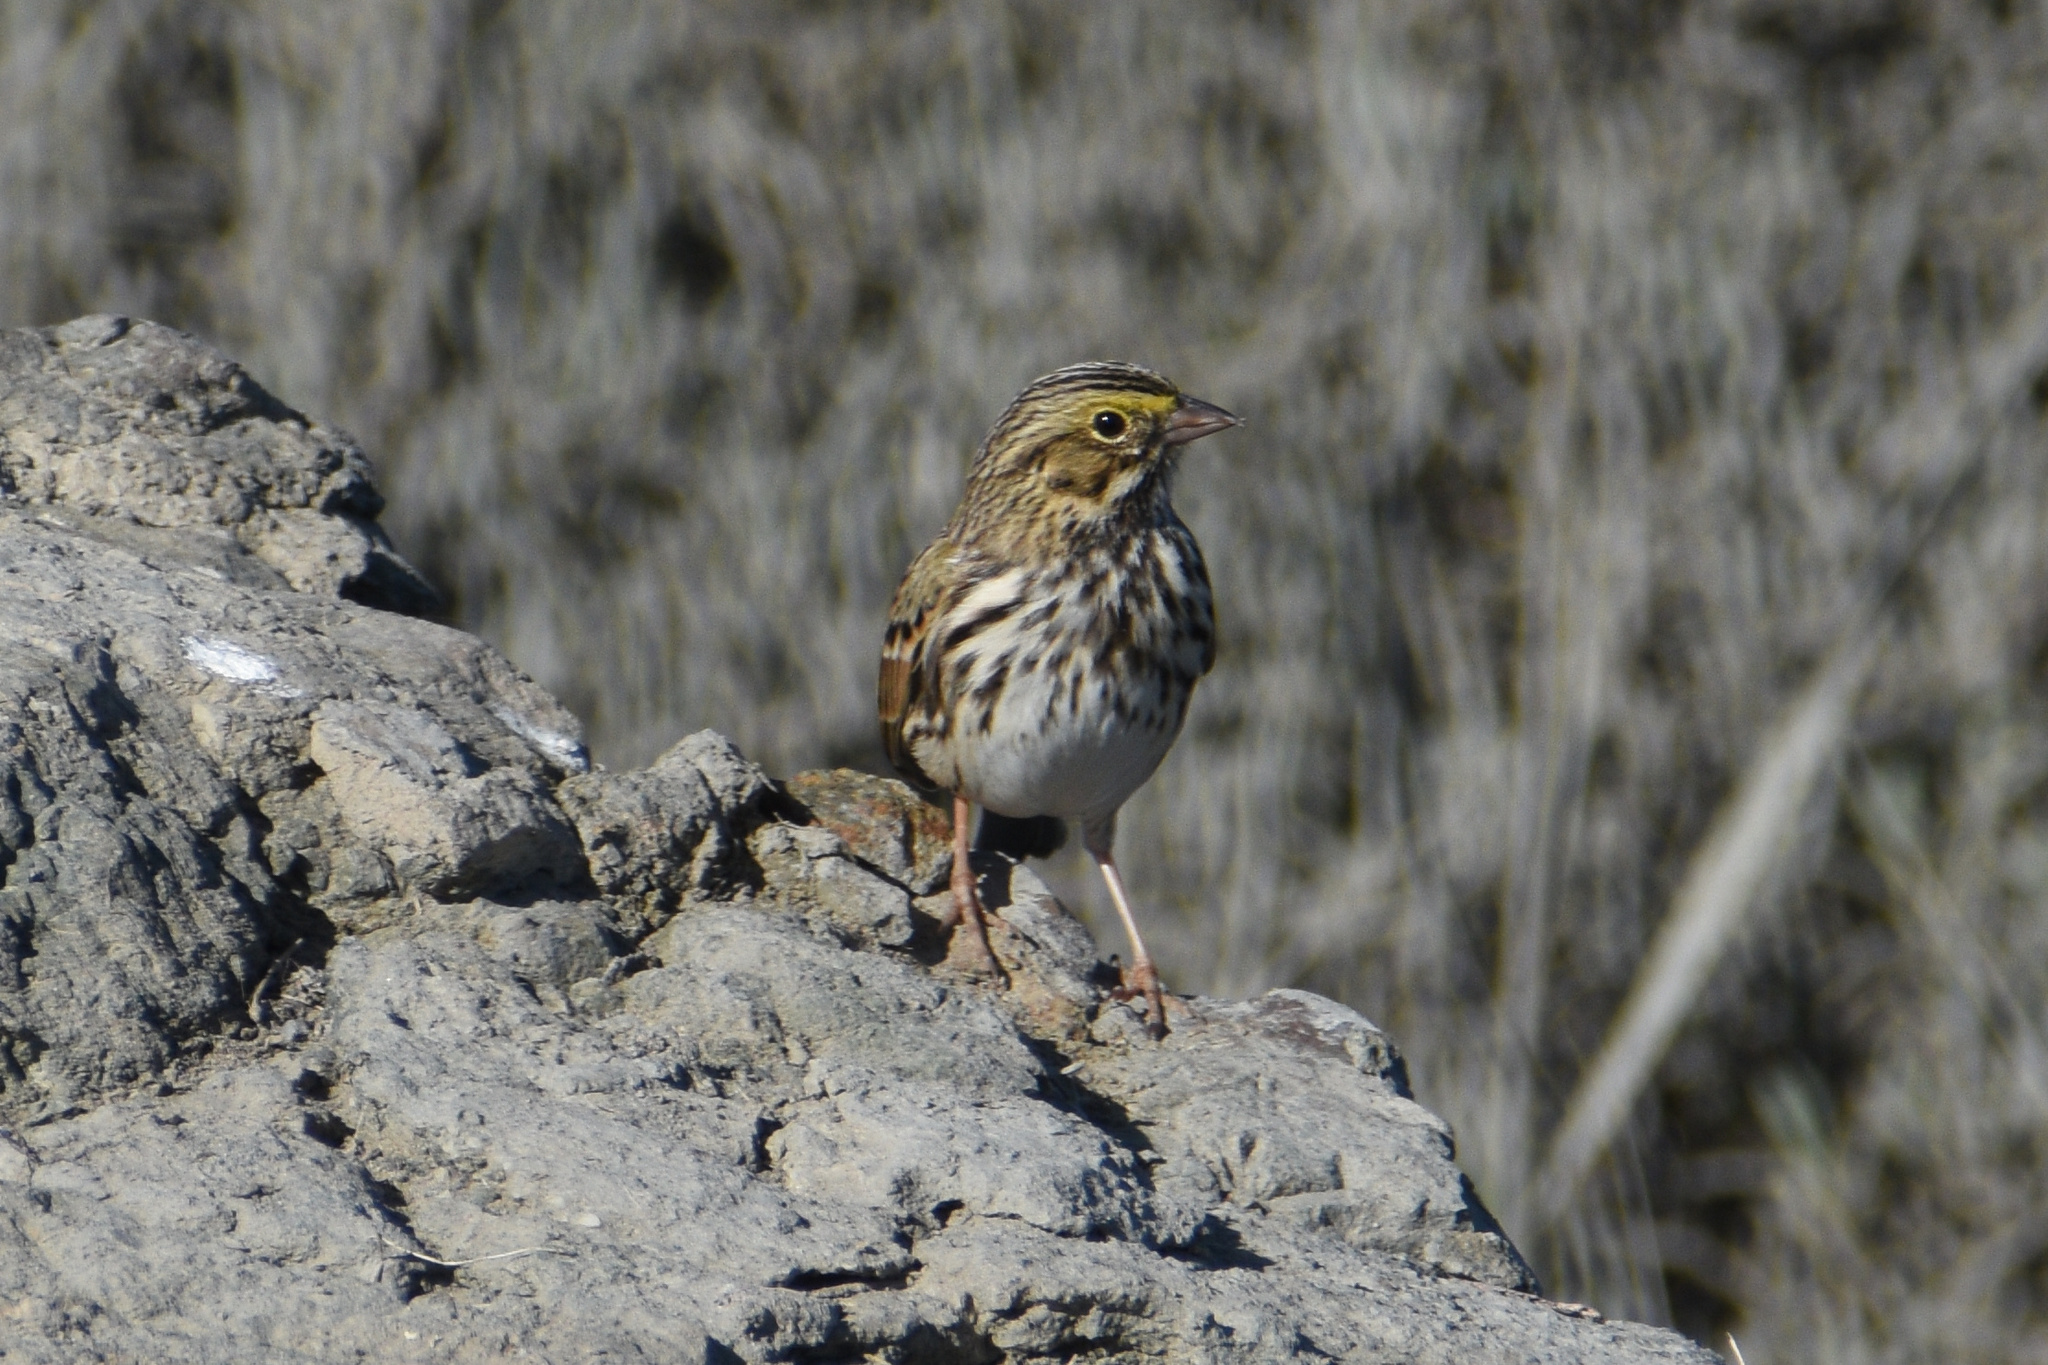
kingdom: Animalia
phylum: Chordata
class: Aves
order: Passeriformes
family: Passerellidae
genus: Passerculus
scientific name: Passerculus sandwichensis
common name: Savannah sparrow
